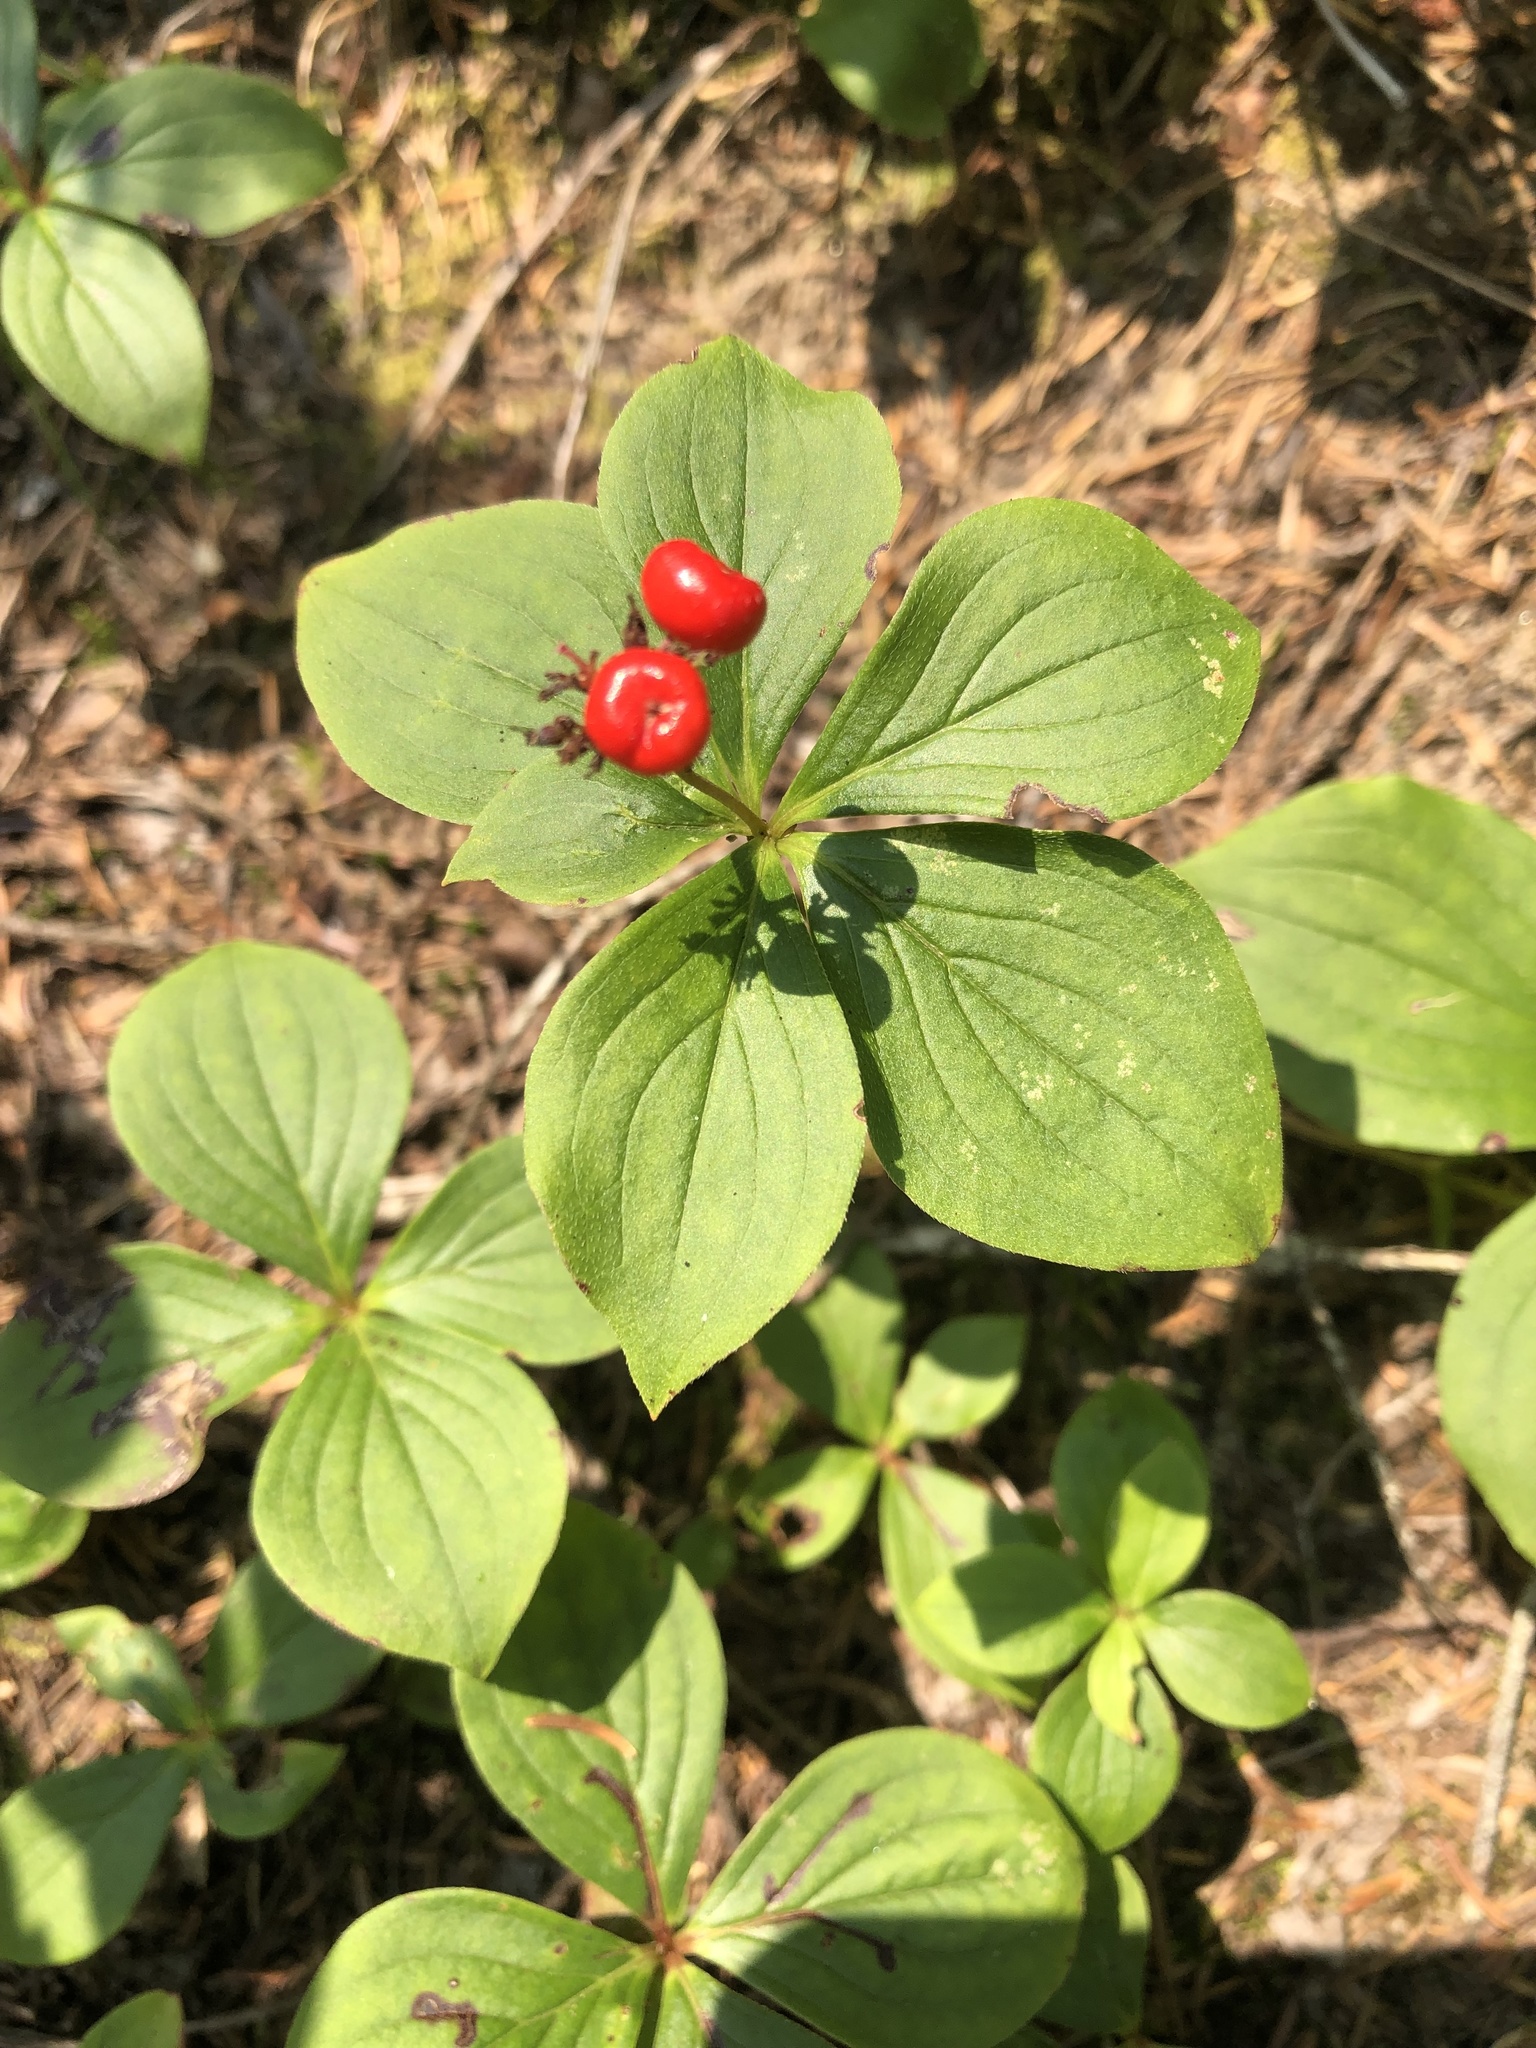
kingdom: Plantae
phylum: Tracheophyta
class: Magnoliopsida
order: Cornales
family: Cornaceae
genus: Cornus
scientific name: Cornus canadensis
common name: Creeping dogwood
